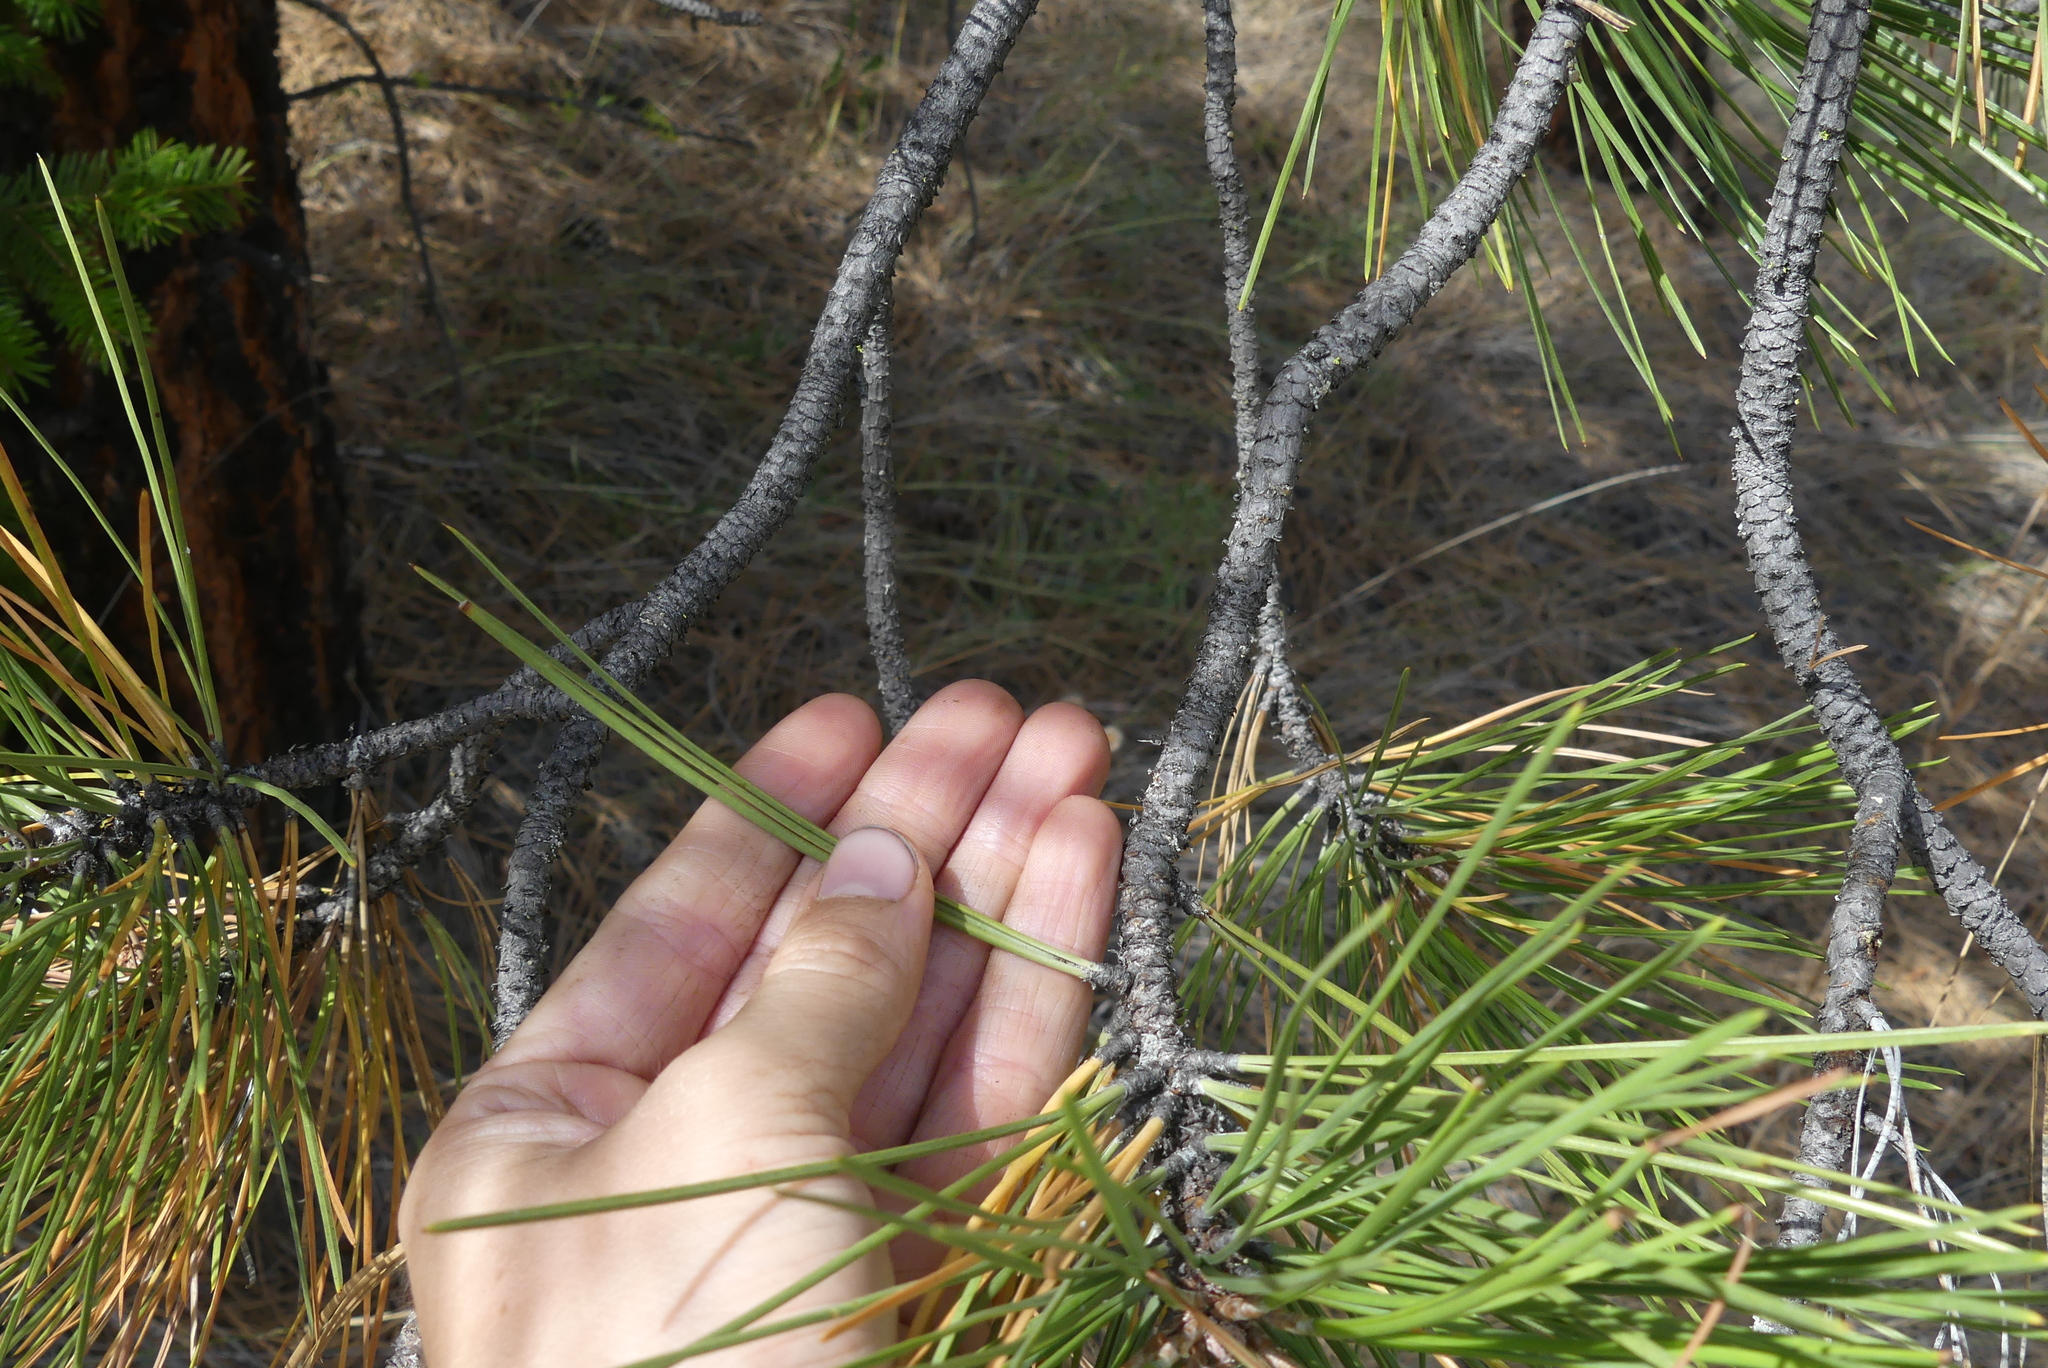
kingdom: Plantae
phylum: Tracheophyta
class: Pinopsida
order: Pinales
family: Pinaceae
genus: Pinus
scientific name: Pinus ponderosa
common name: Western yellow-pine
